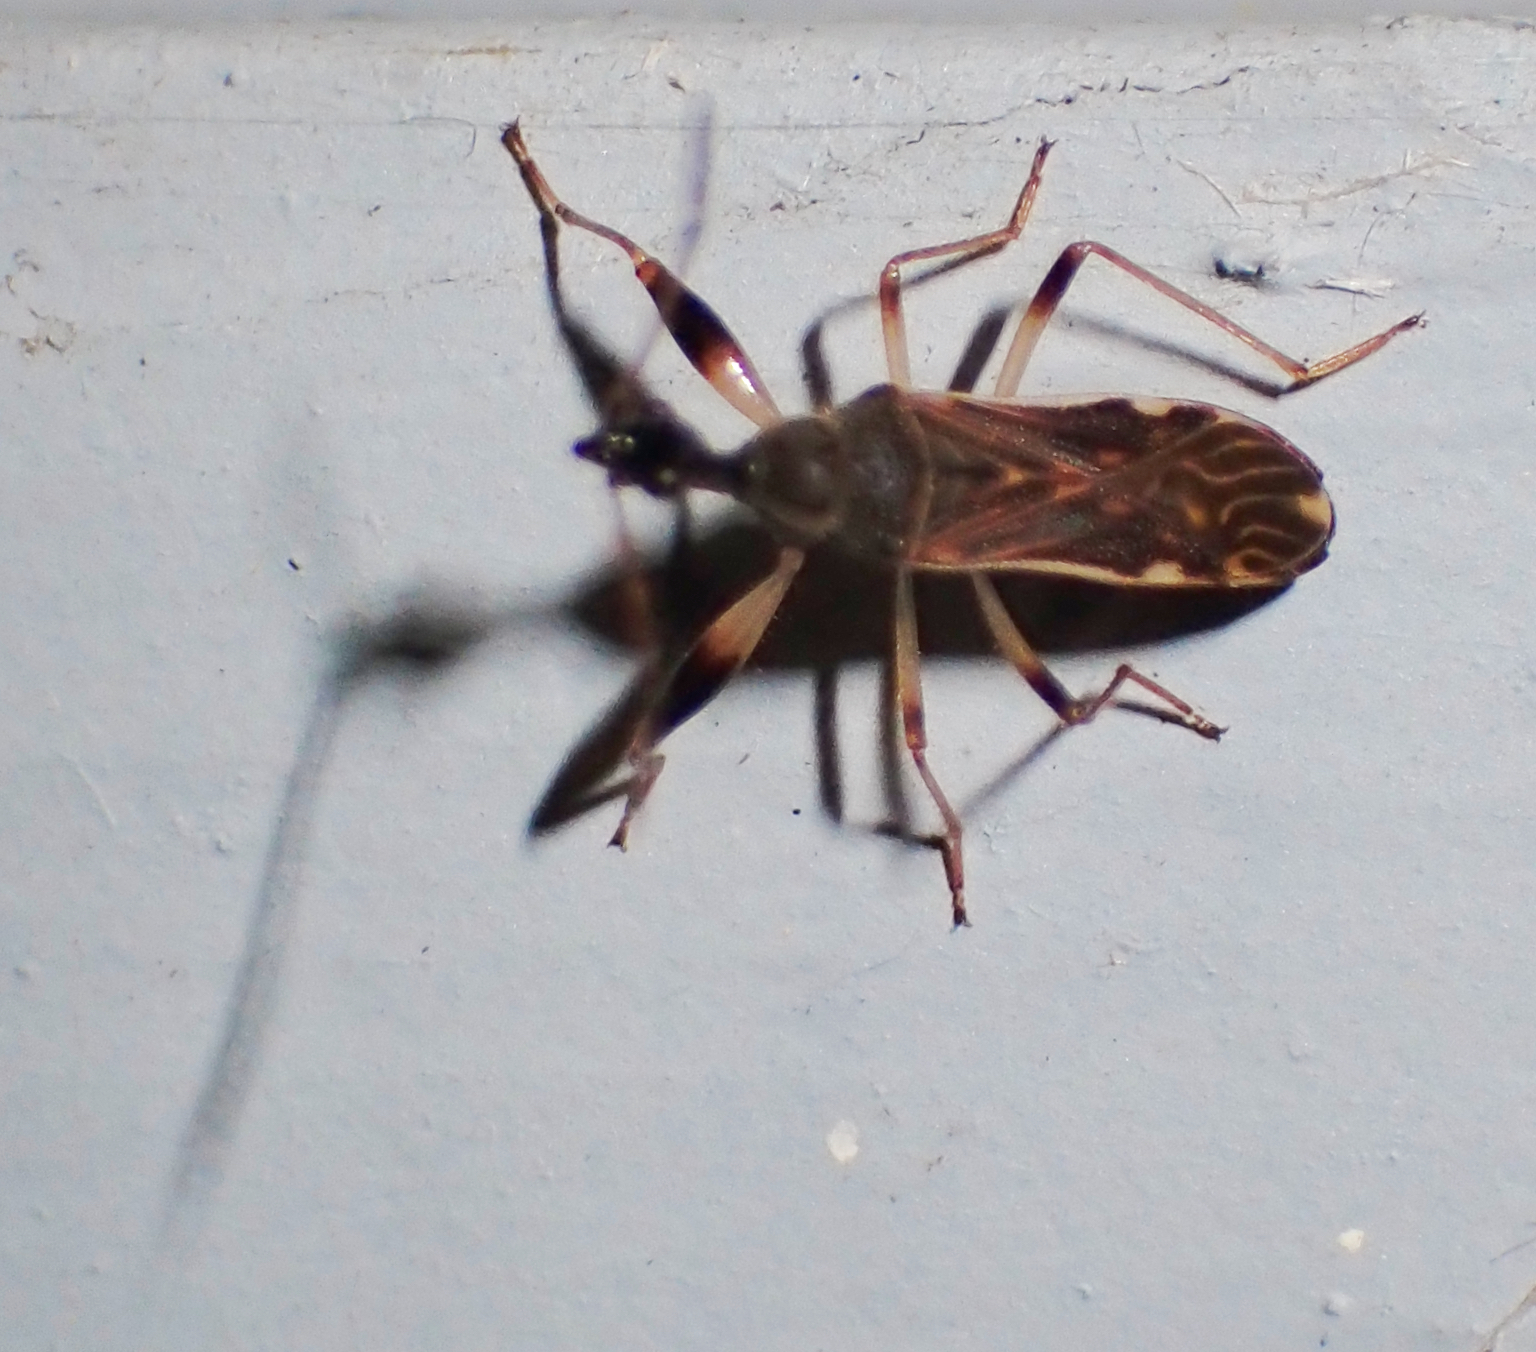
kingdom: Animalia
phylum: Arthropoda
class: Insecta
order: Hemiptera
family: Rhyparochromidae
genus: Myodocha
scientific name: Myodocha serripes
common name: Long-necked seed bug
